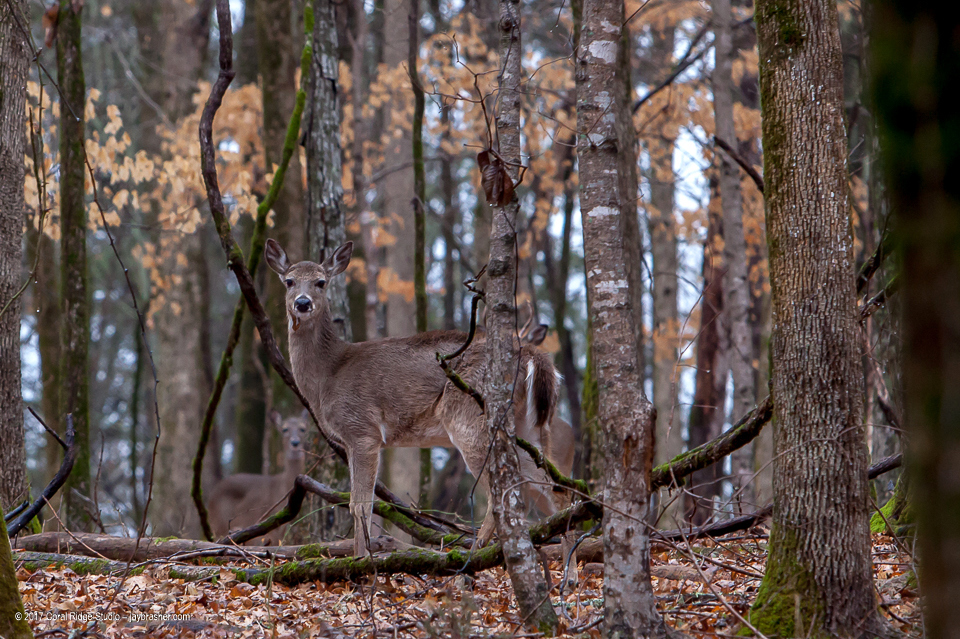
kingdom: Animalia
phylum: Chordata
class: Mammalia
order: Artiodactyla
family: Cervidae
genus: Odocoileus
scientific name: Odocoileus virginianus
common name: White-tailed deer
